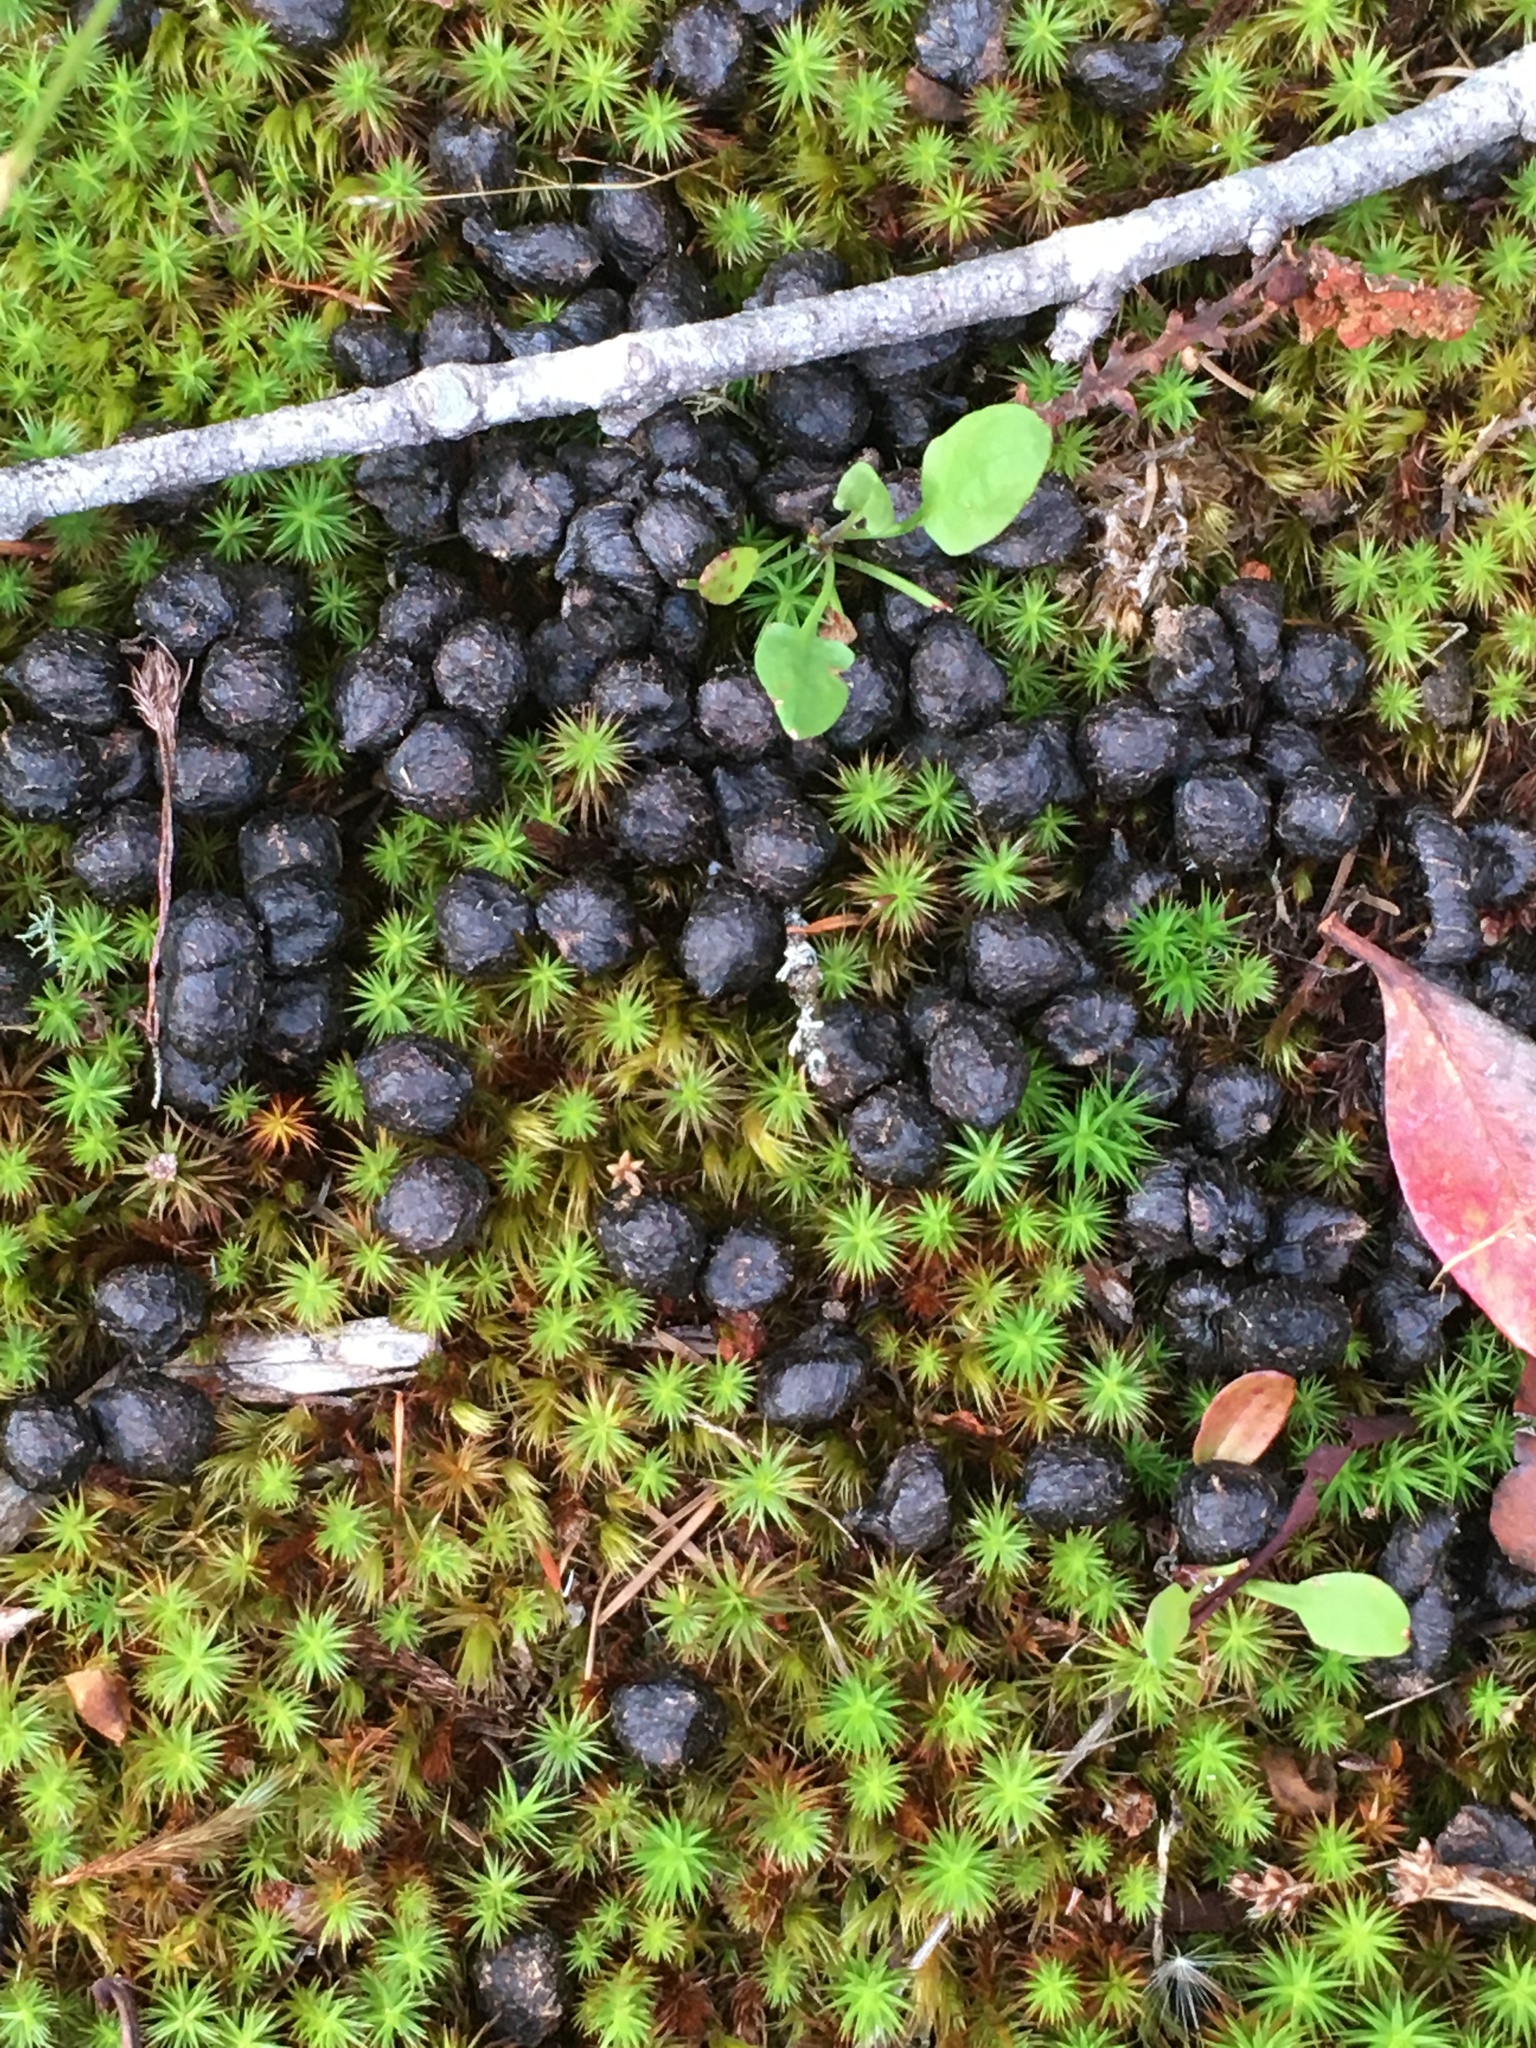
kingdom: Animalia
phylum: Chordata
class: Mammalia
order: Artiodactyla
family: Cervidae
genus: Odocoileus
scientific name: Odocoileus hemionus
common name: Mule deer
